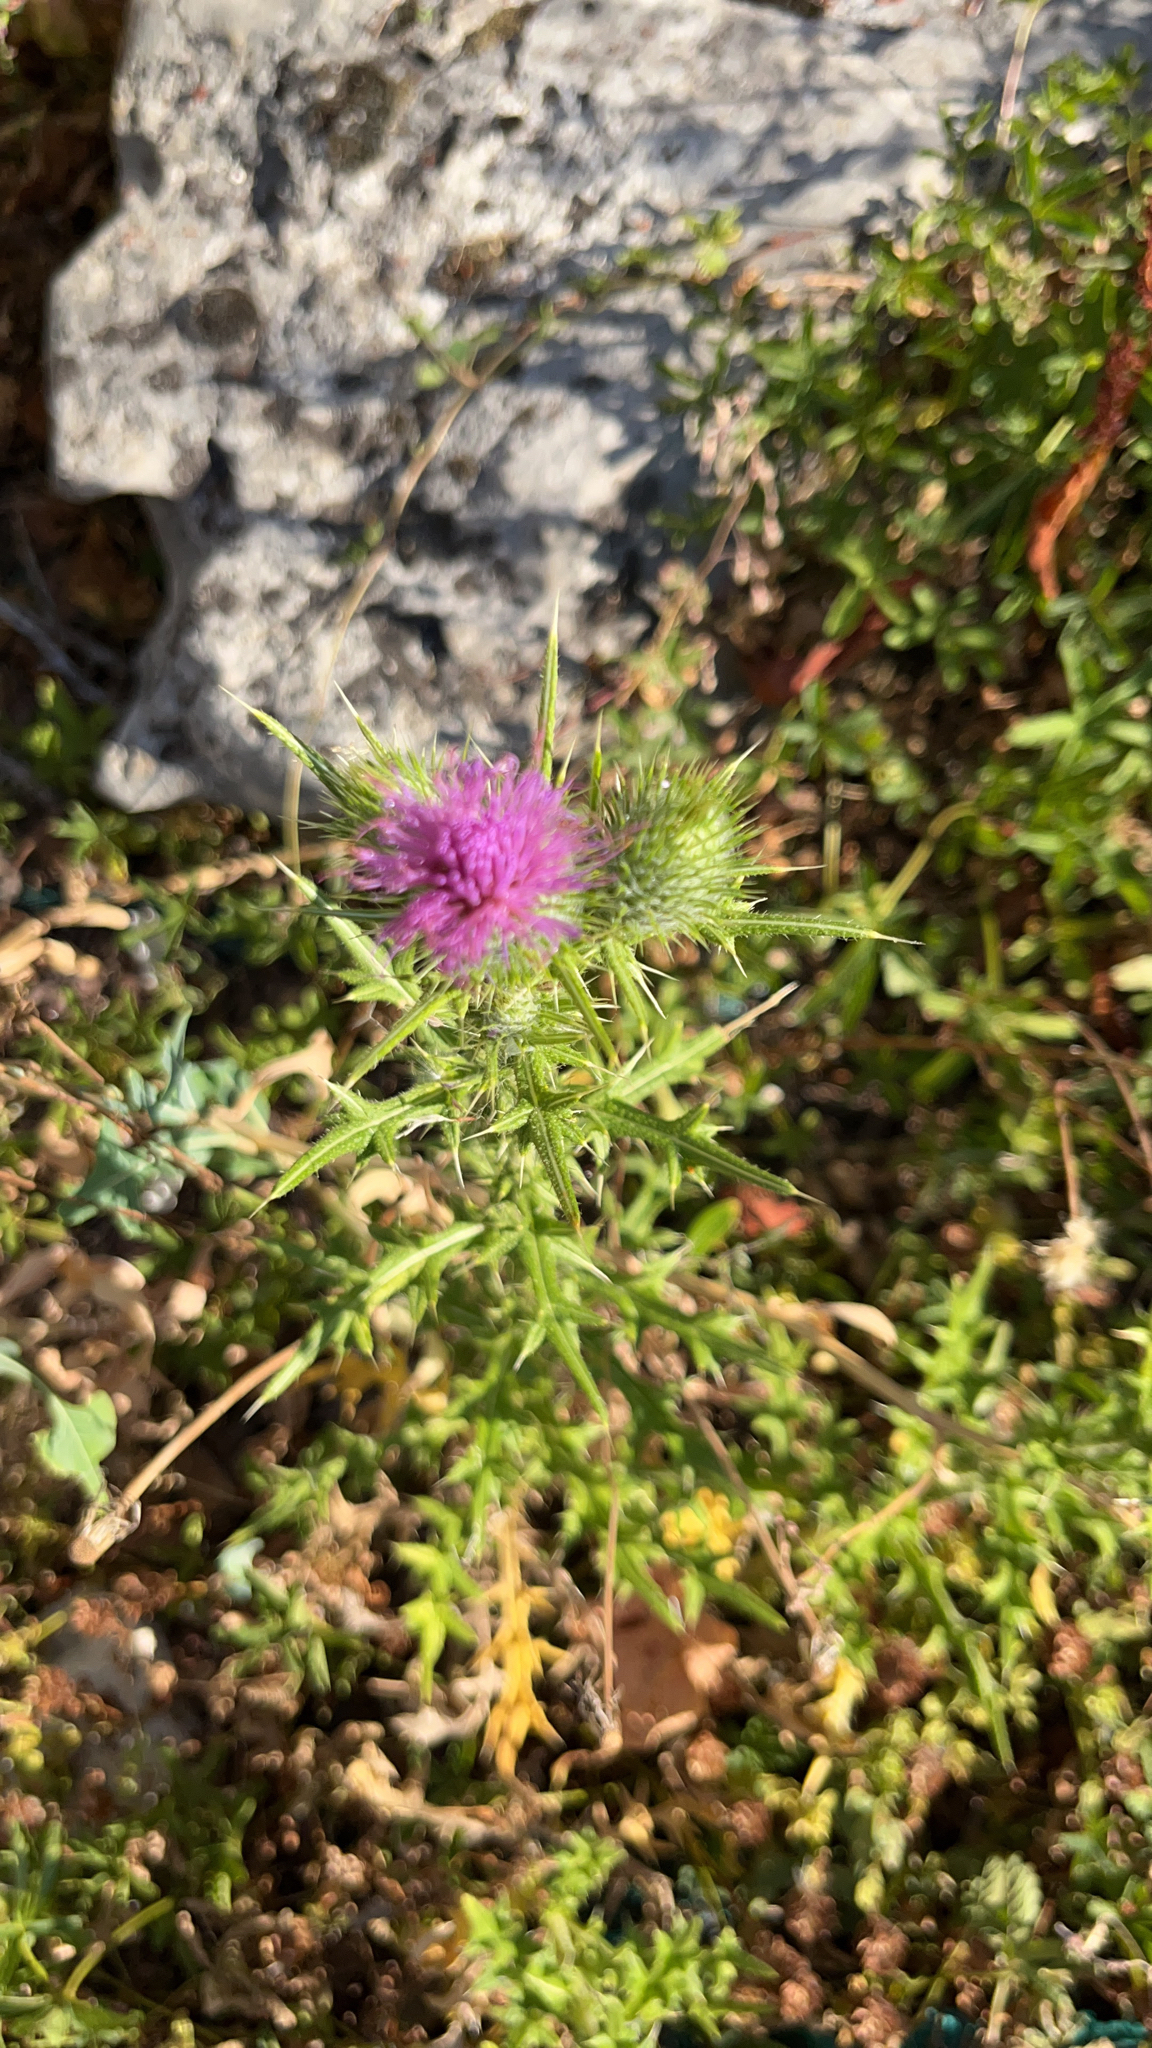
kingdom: Plantae
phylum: Tracheophyta
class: Magnoliopsida
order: Asterales
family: Asteraceae
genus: Cirsium
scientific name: Cirsium vulgare
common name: Bull thistle
